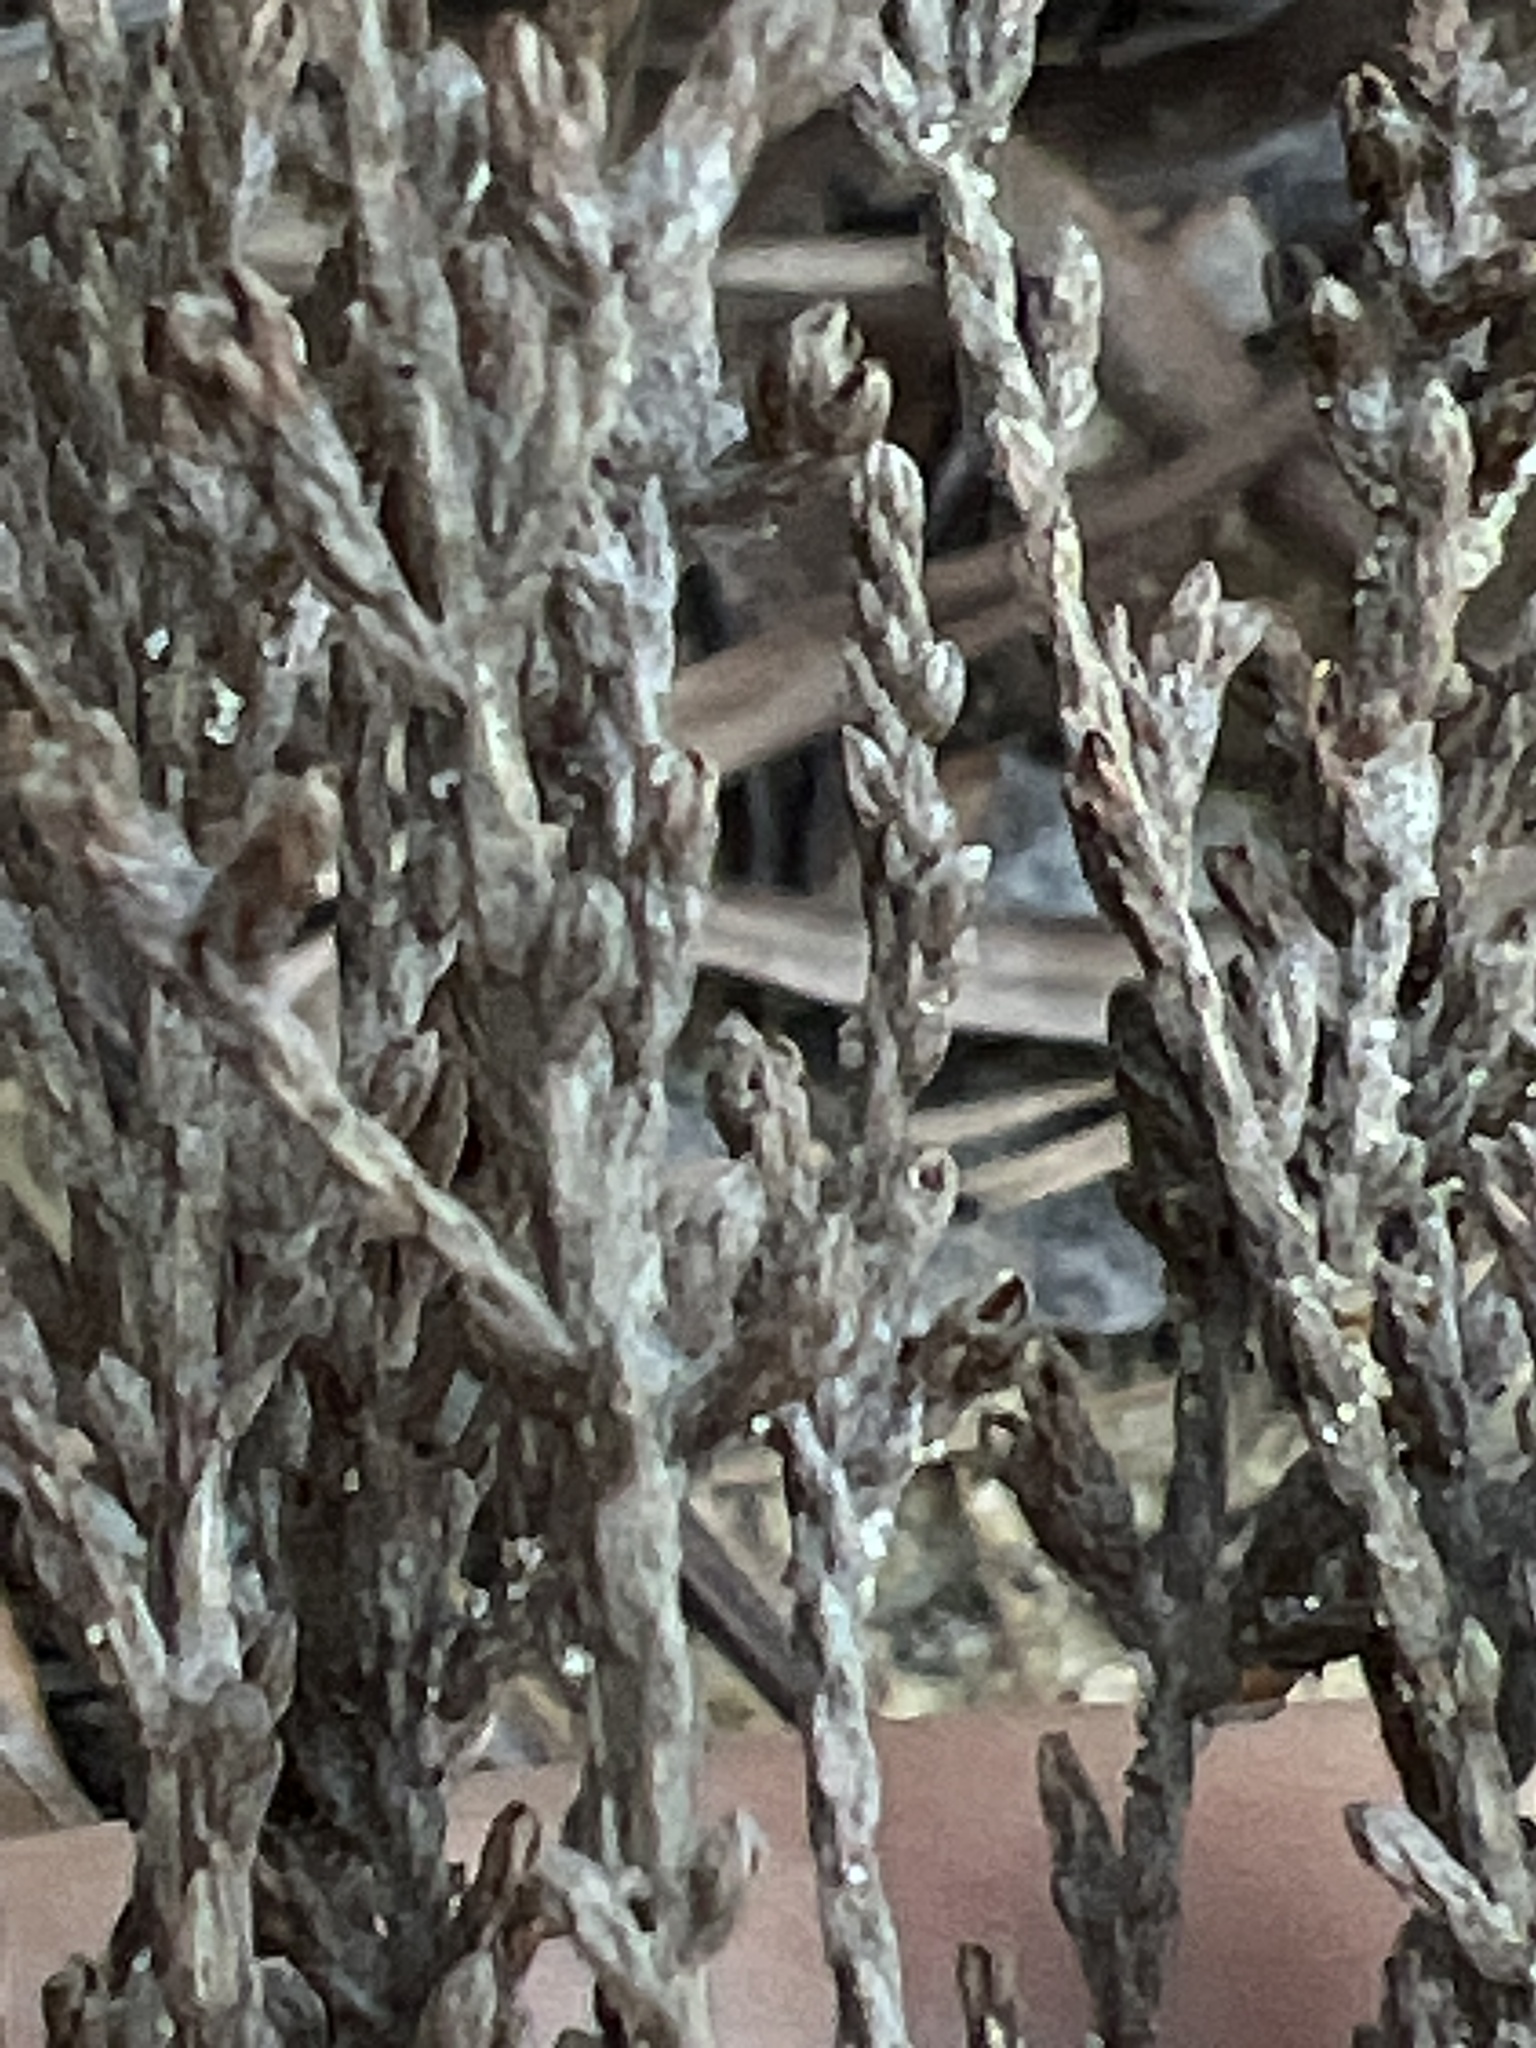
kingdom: Plantae
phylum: Tracheophyta
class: Magnoliopsida
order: Malvales
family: Cistaceae
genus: Hudsonia
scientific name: Hudsonia tomentosa
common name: Beach-heath
